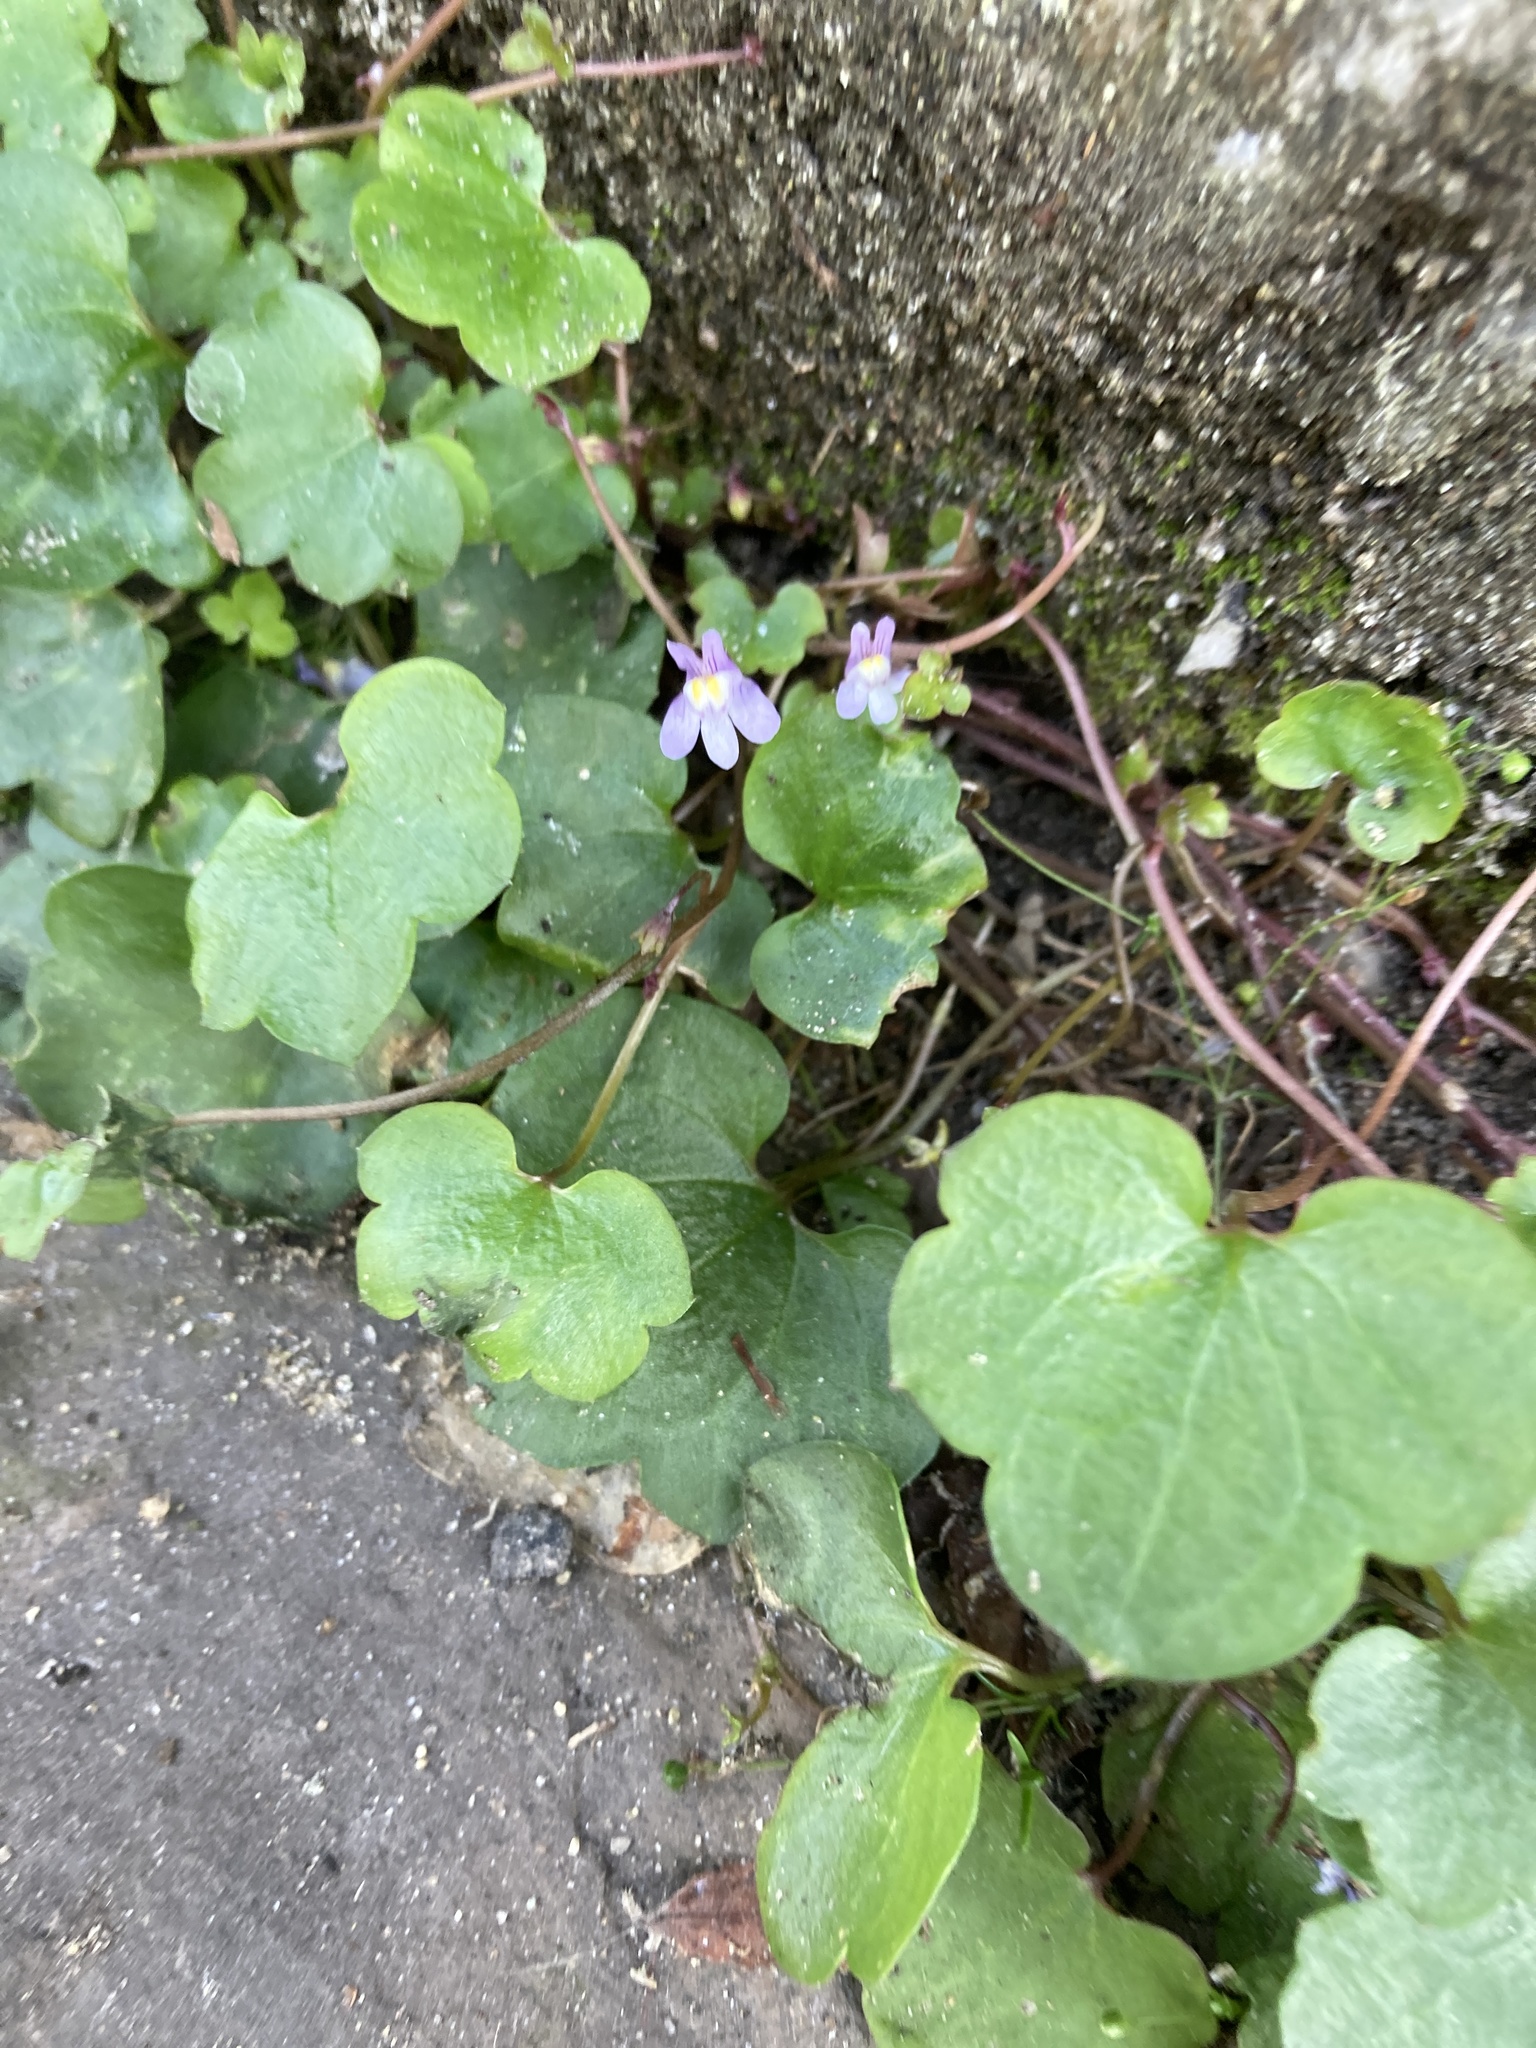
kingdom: Plantae
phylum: Tracheophyta
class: Magnoliopsida
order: Lamiales
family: Plantaginaceae
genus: Cymbalaria
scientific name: Cymbalaria muralis
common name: Ivy-leaved toadflax
